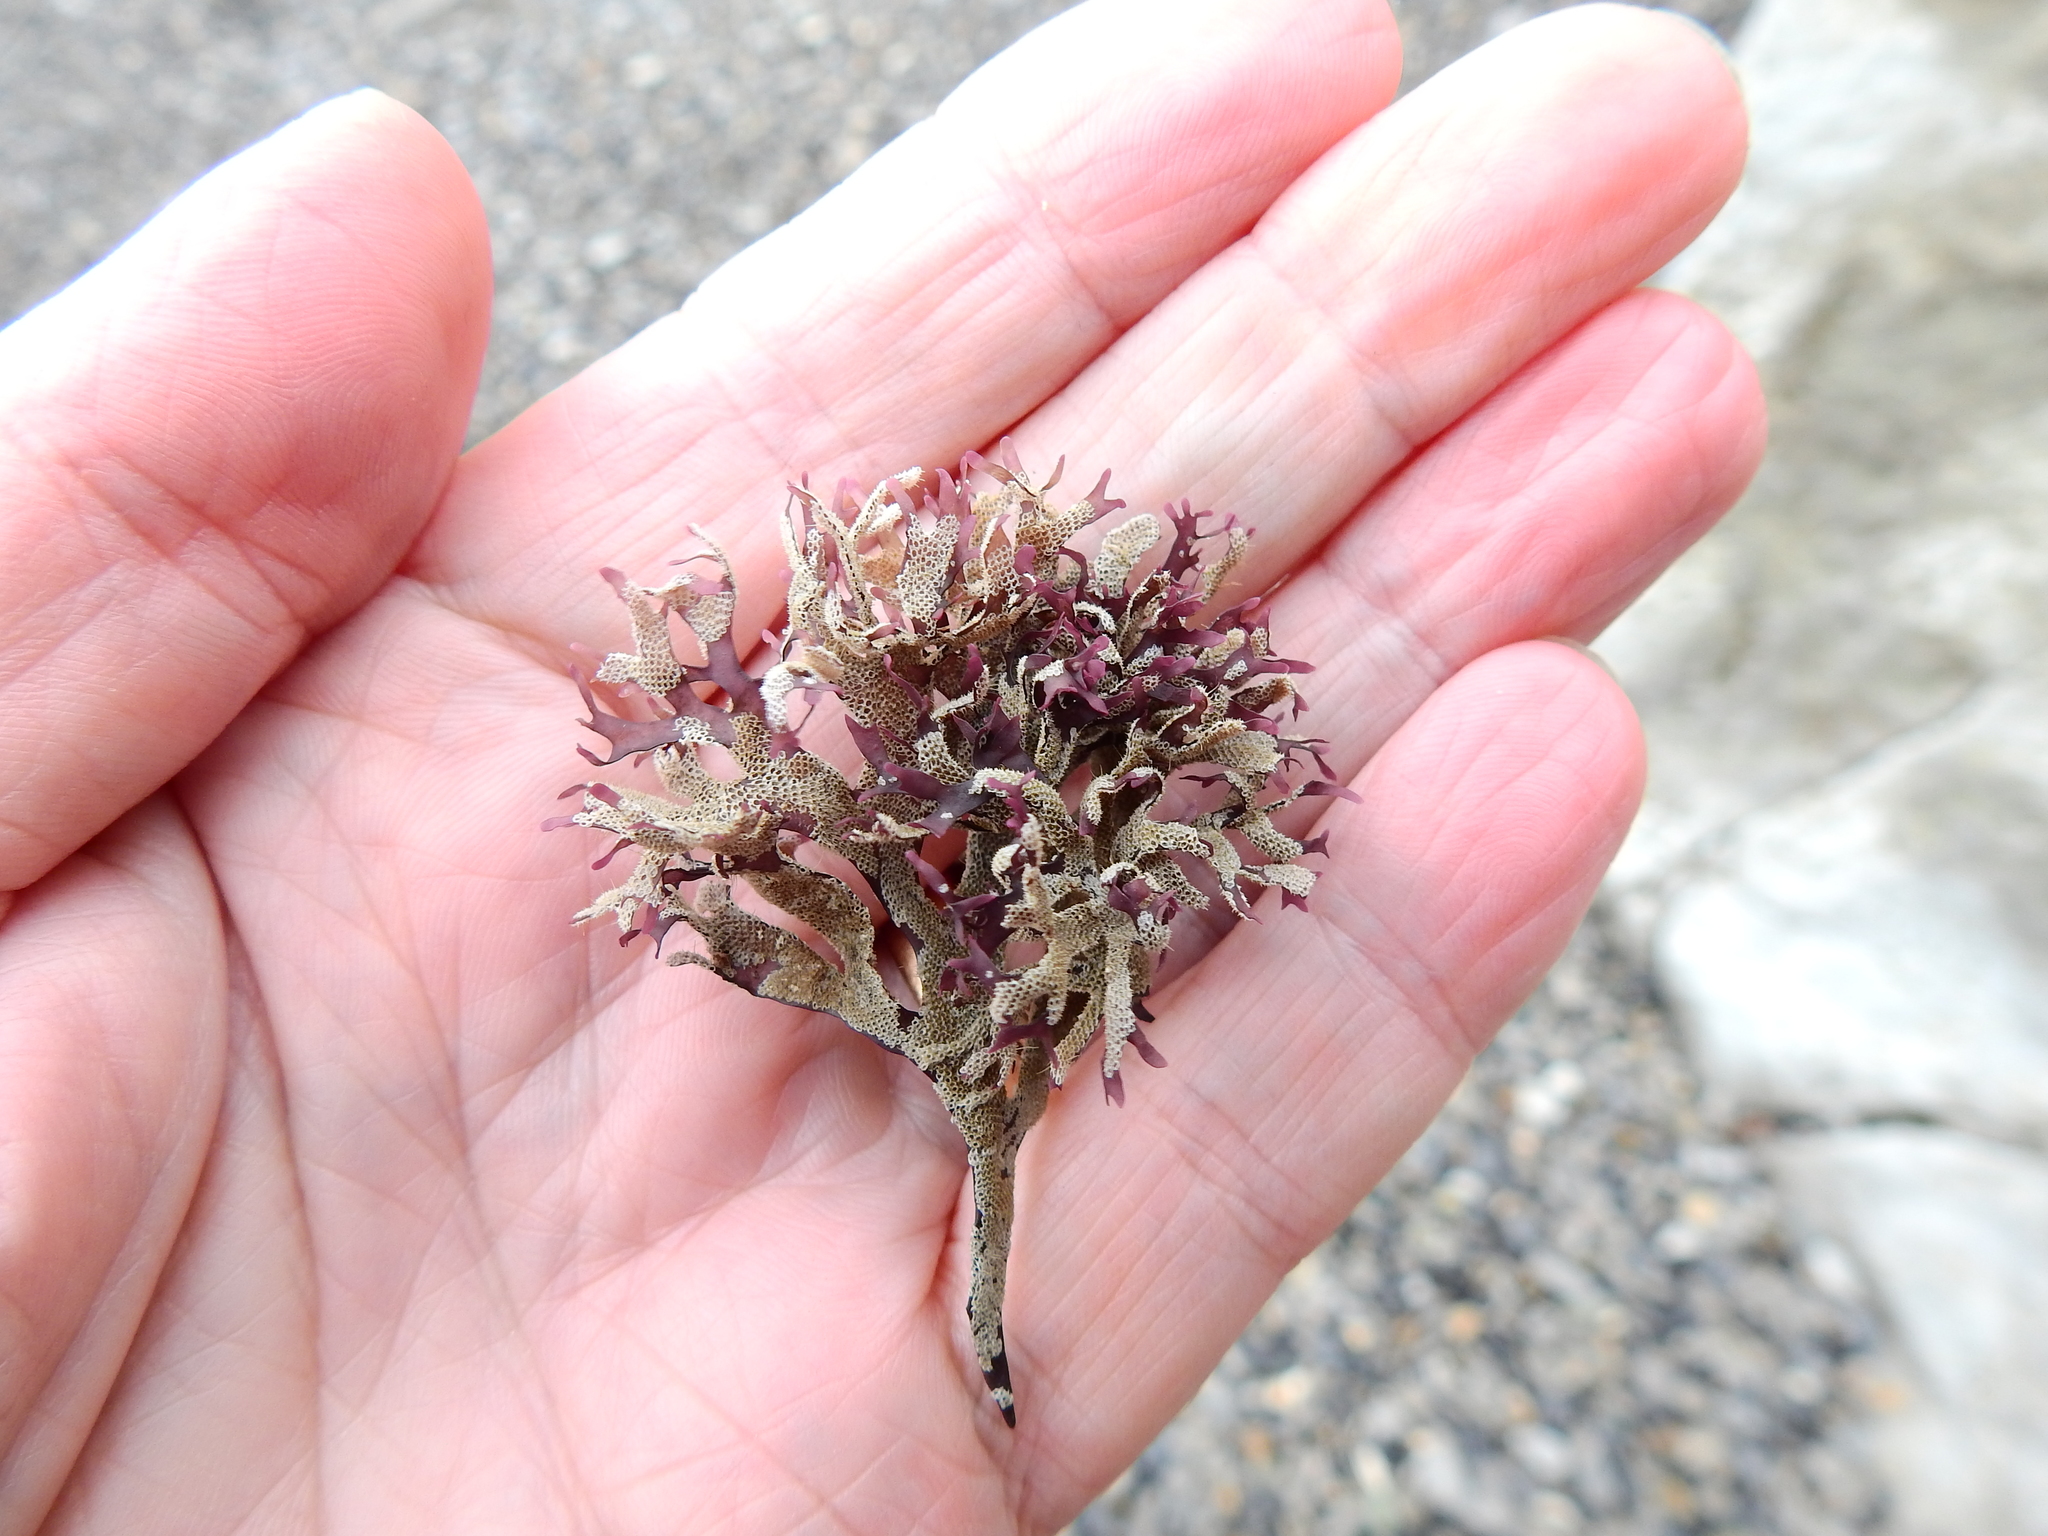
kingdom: Plantae
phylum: Rhodophyta
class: Florideophyceae
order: Gigartinales
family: Gigartinaceae
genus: Chondrus
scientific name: Chondrus crispus
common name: Carrageen
